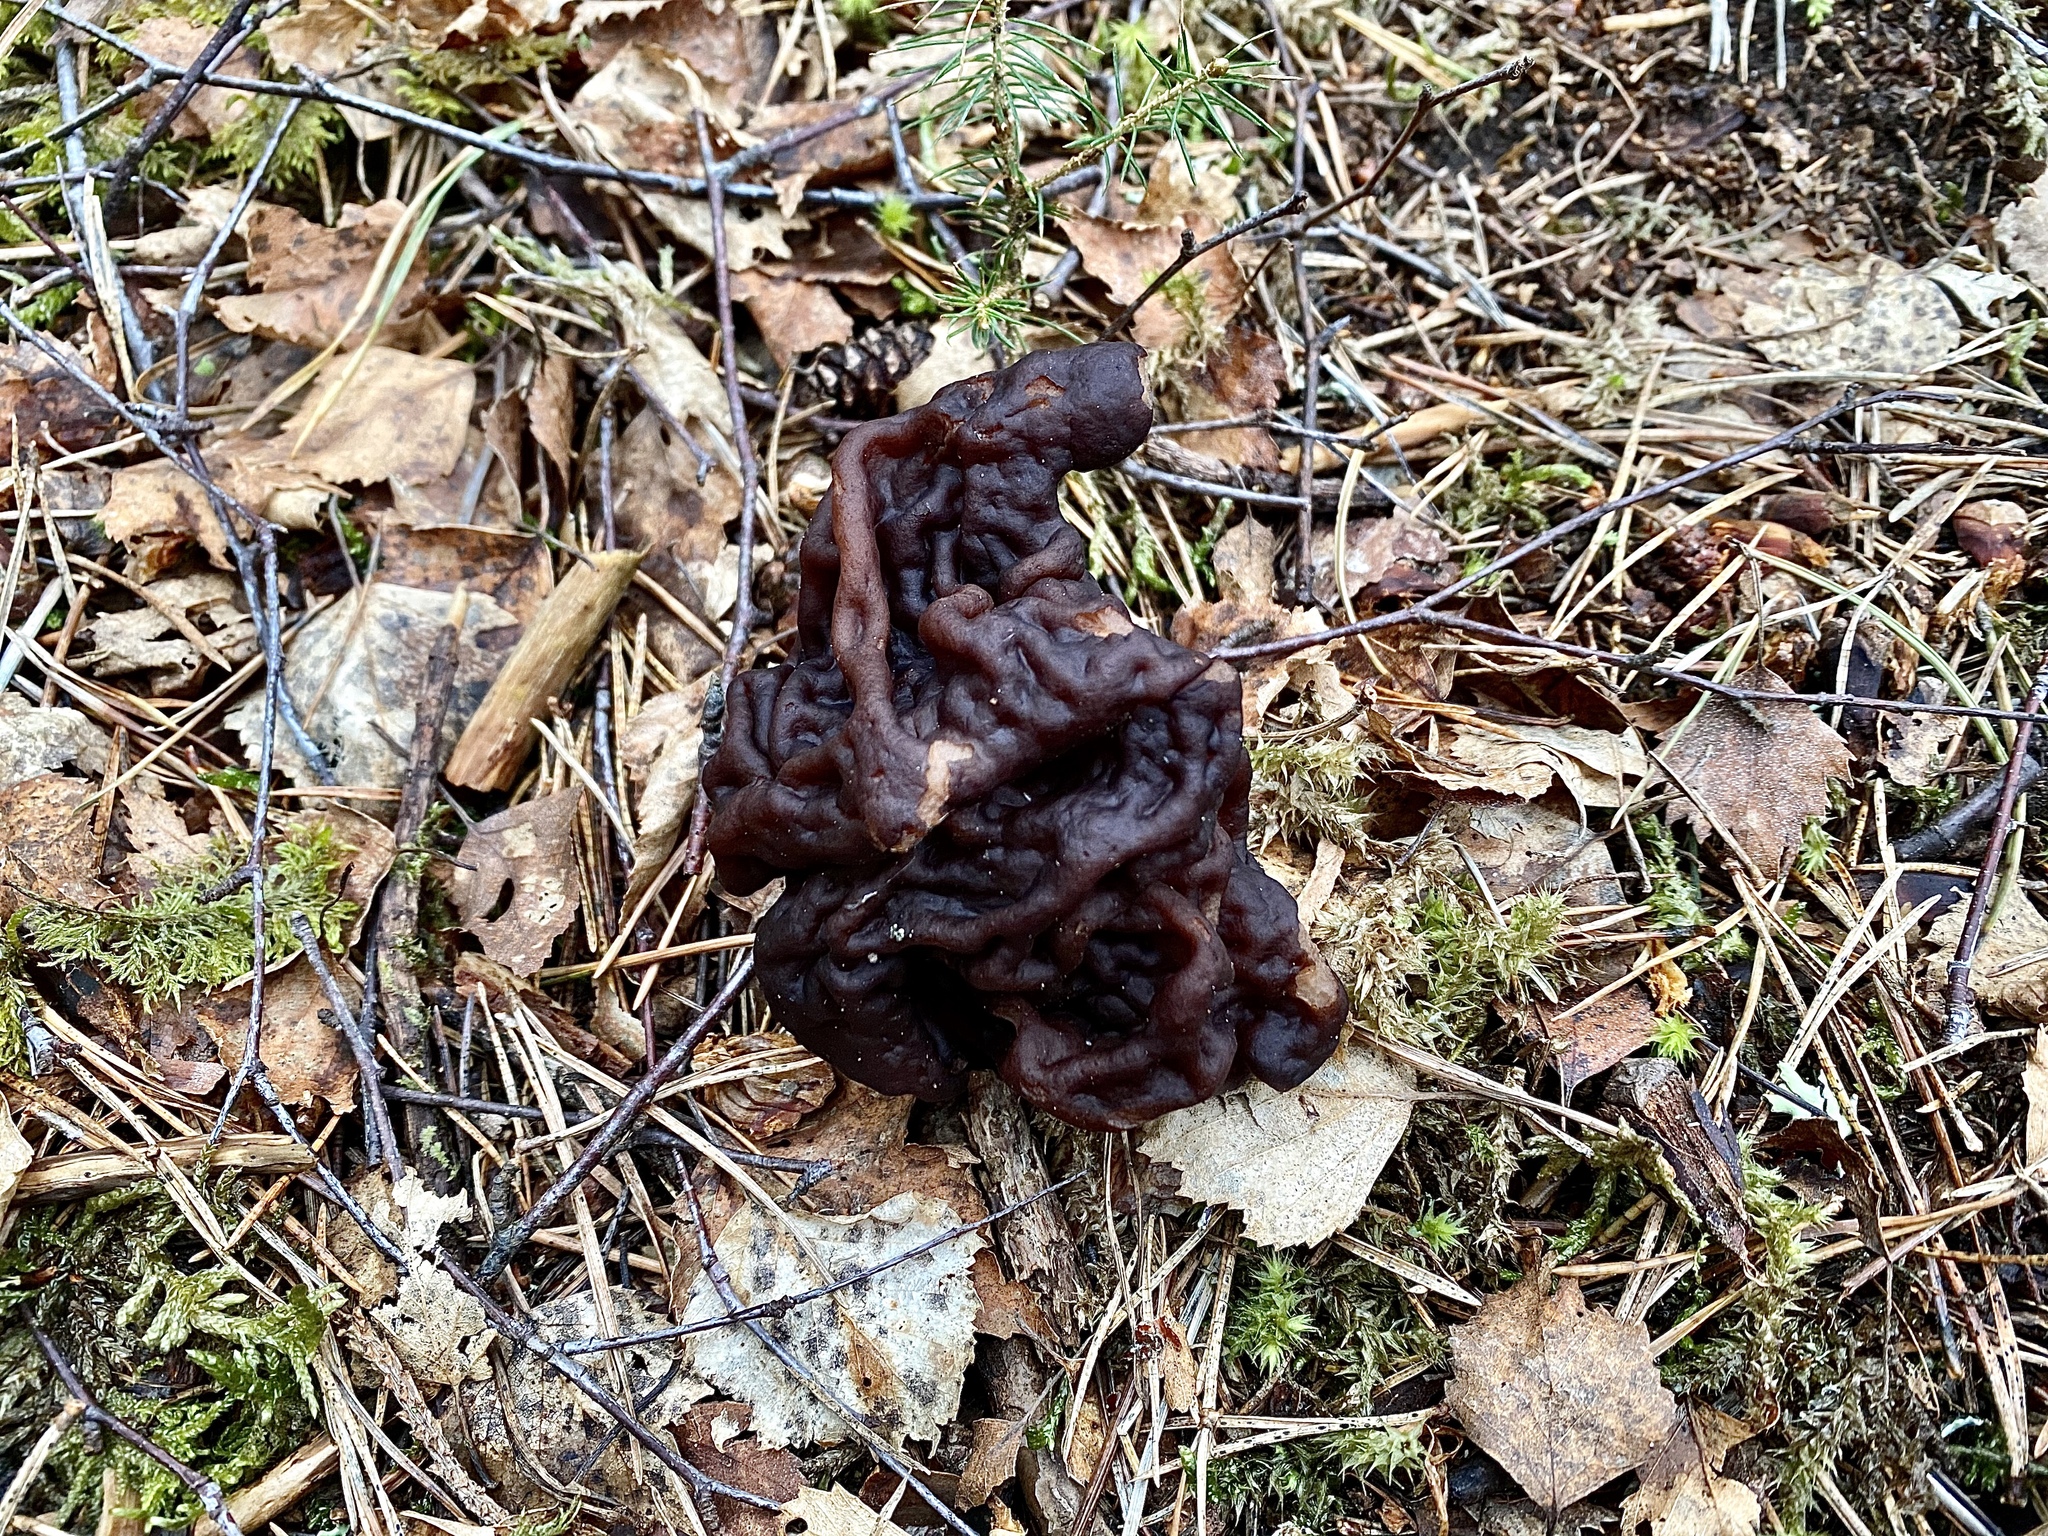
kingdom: Fungi
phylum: Ascomycota
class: Pezizomycetes
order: Pezizales
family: Discinaceae
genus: Gyromitra
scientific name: Gyromitra esculenta
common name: False morel
